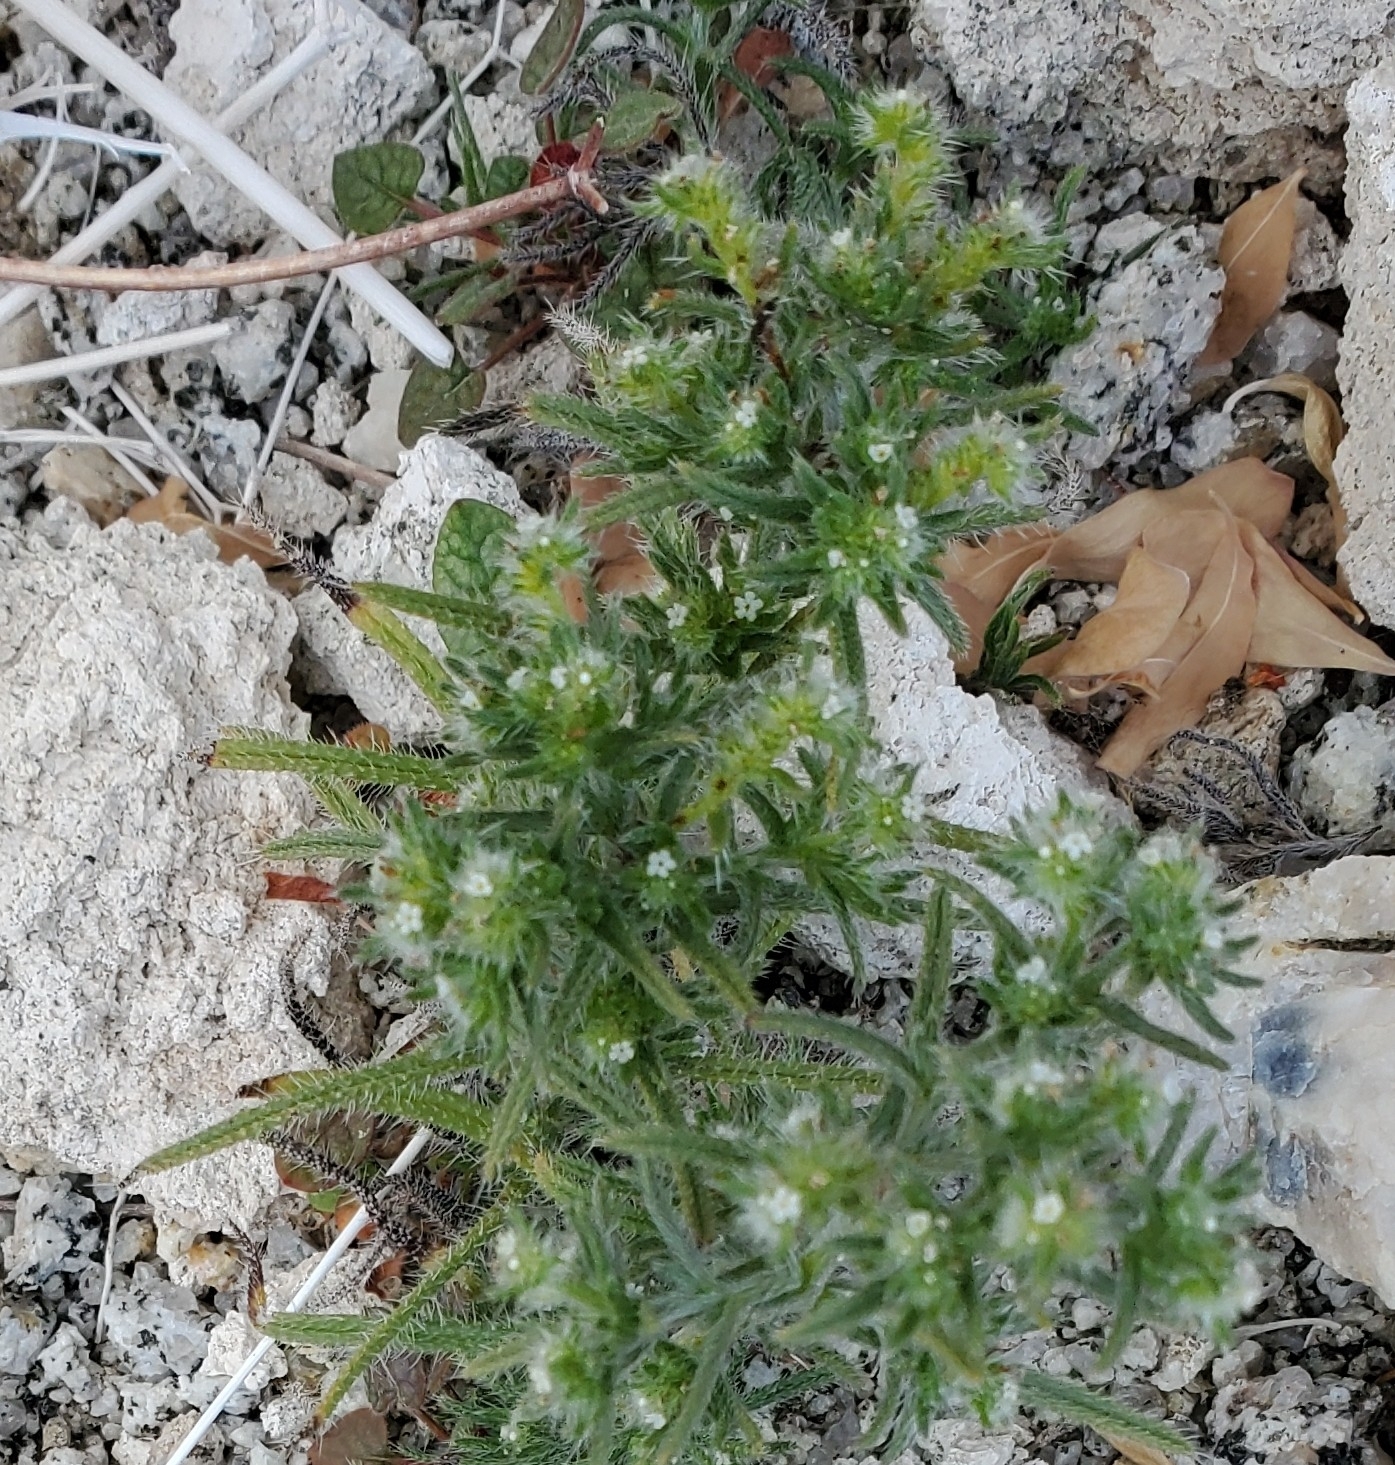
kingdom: Plantae
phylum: Tracheophyta
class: Magnoliopsida
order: Boraginales
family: Boraginaceae
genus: Cryptantha
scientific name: Cryptantha maritima
